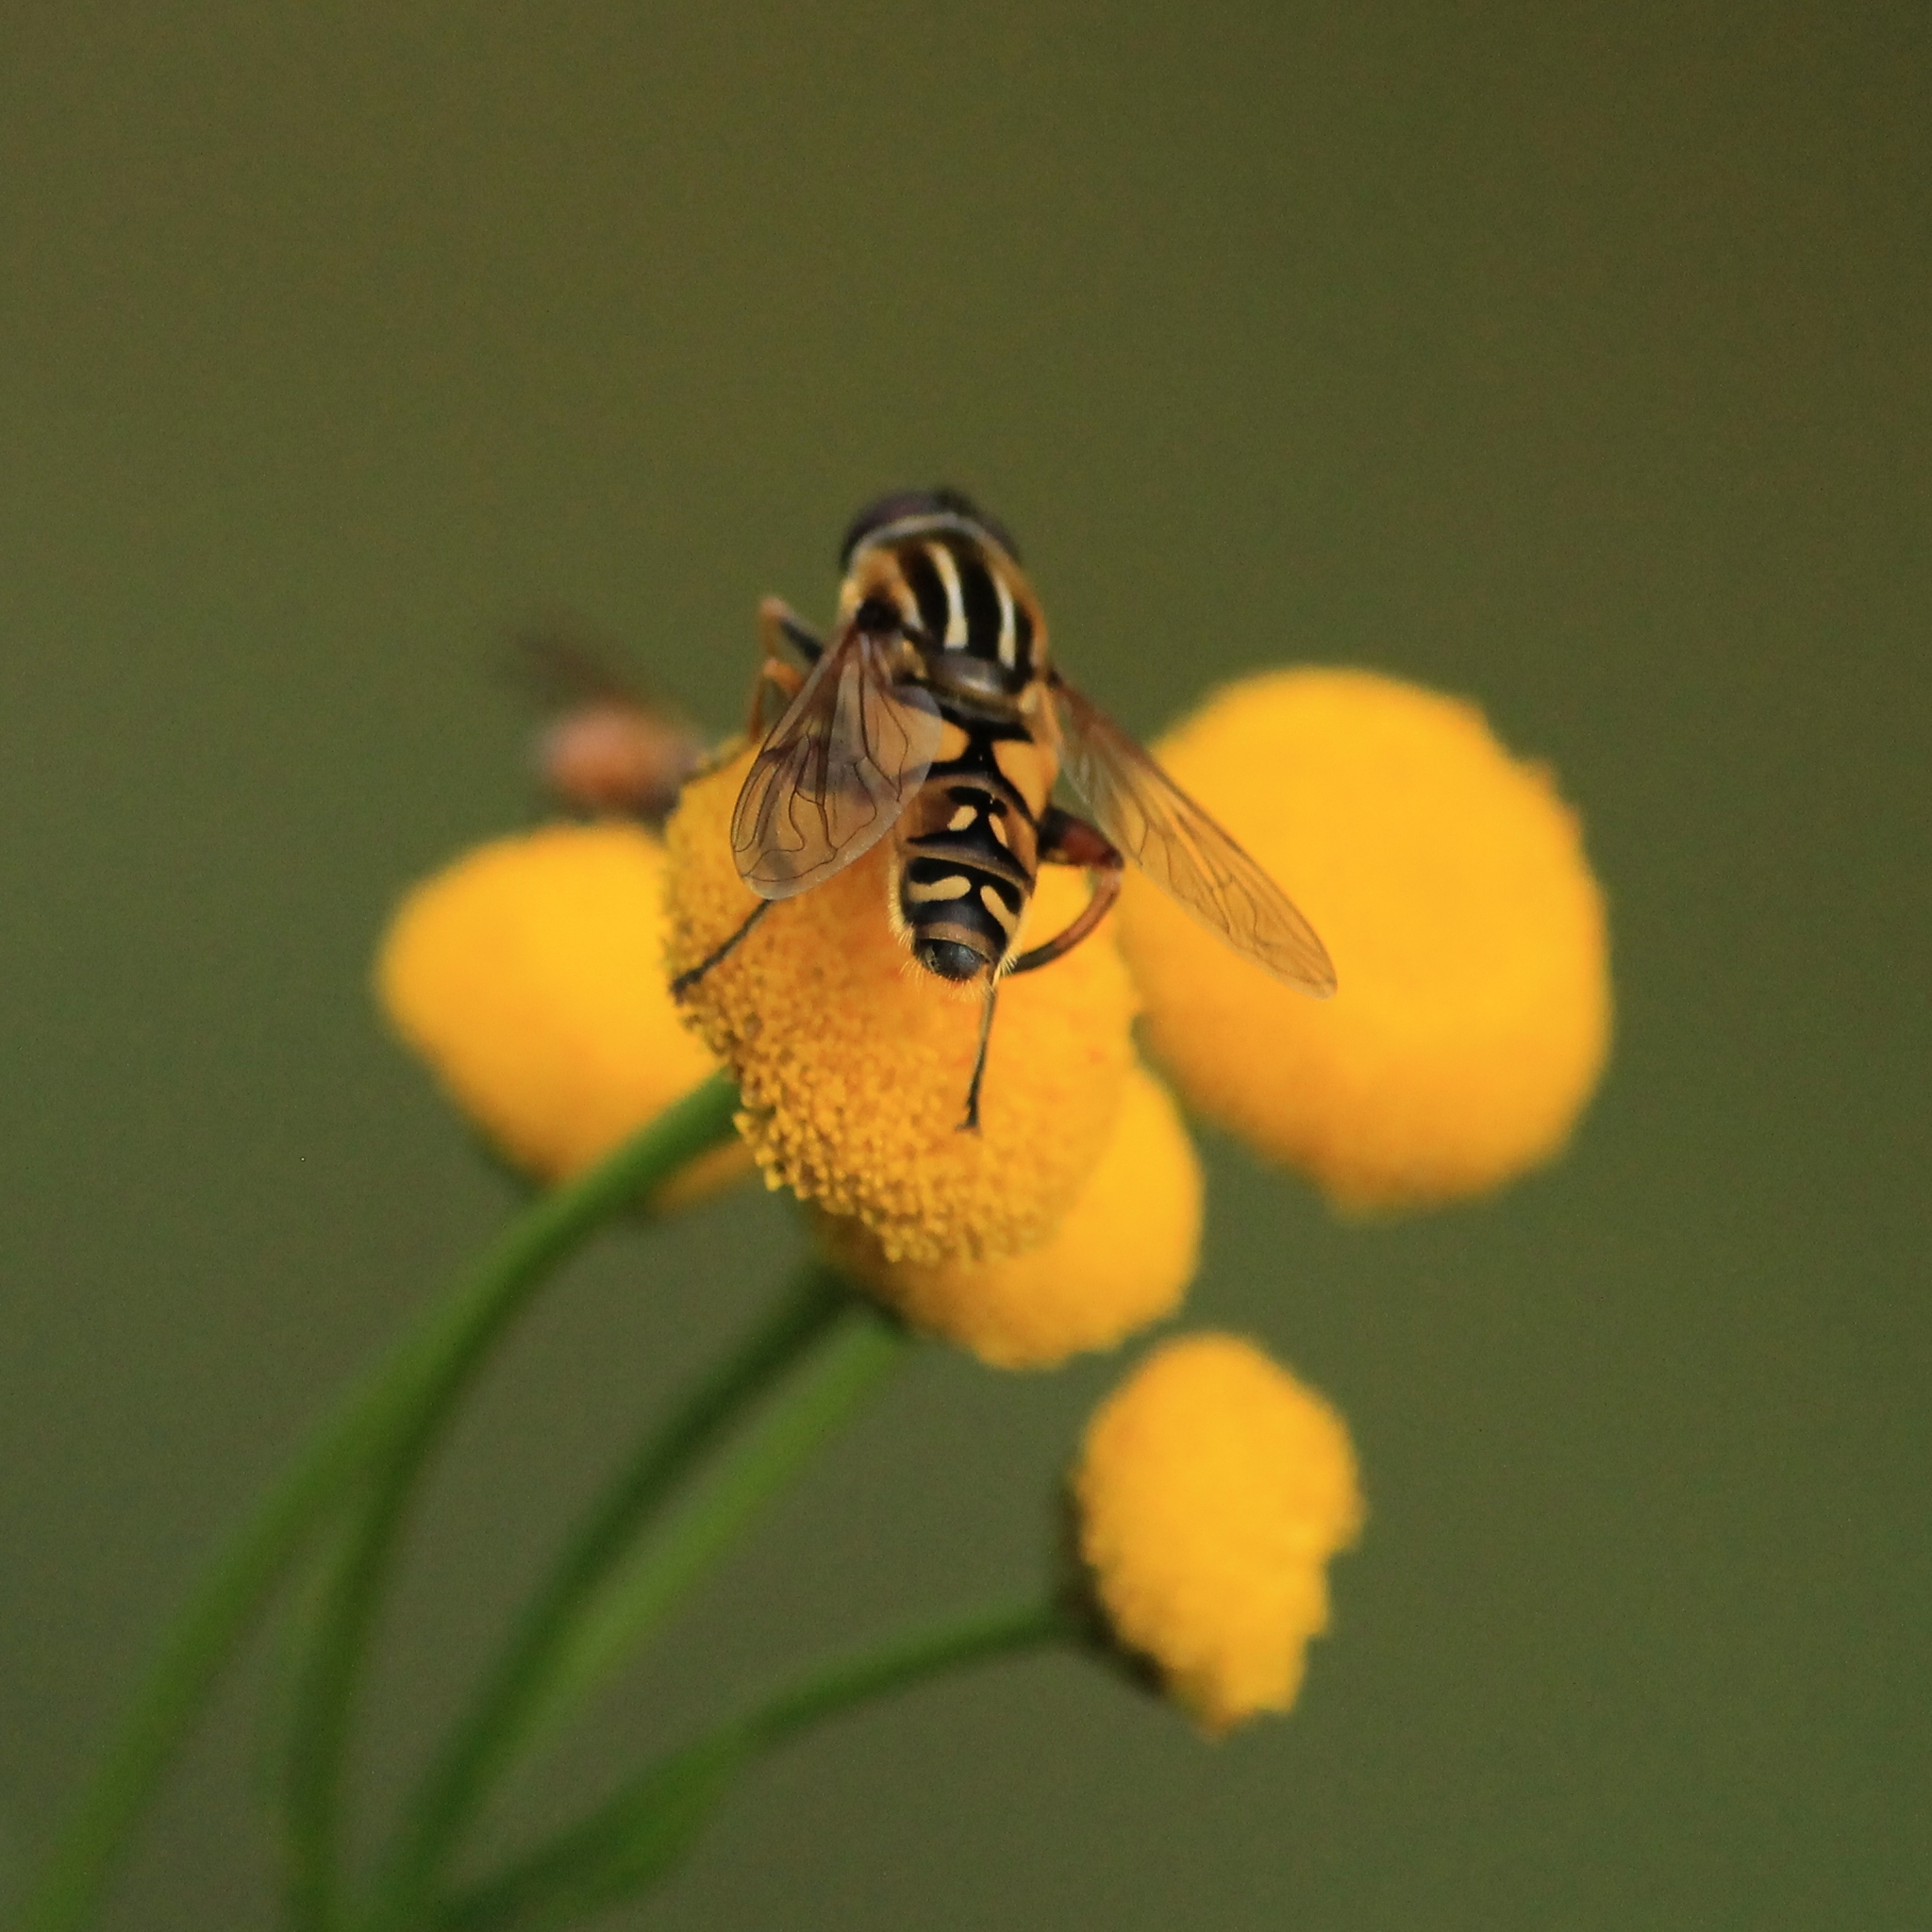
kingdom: Animalia
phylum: Arthropoda
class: Insecta
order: Diptera
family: Syrphidae
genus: Helophilus
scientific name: Helophilus pendulus
